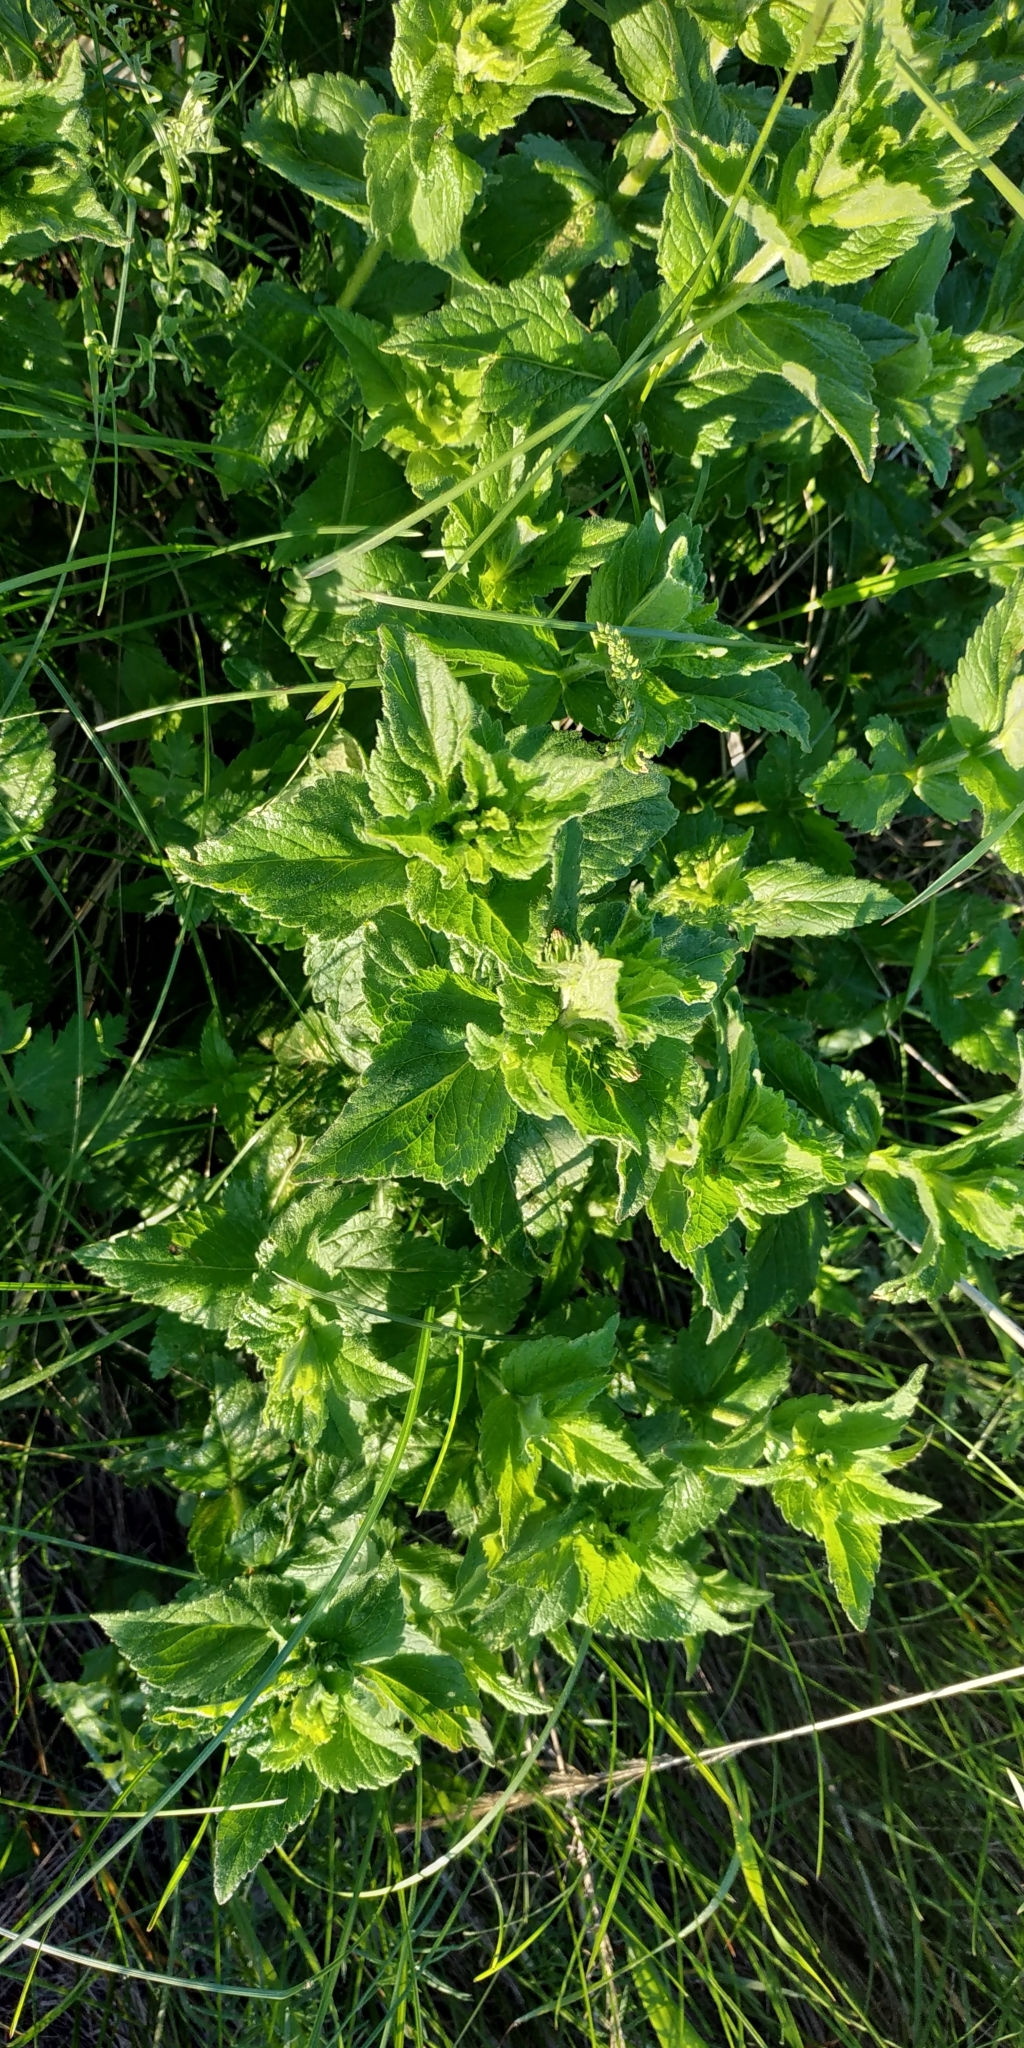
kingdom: Plantae
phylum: Tracheophyta
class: Magnoliopsida
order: Lamiales
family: Plantaginaceae
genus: Veronica
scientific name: Veronica teucrium
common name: Large speedwell
